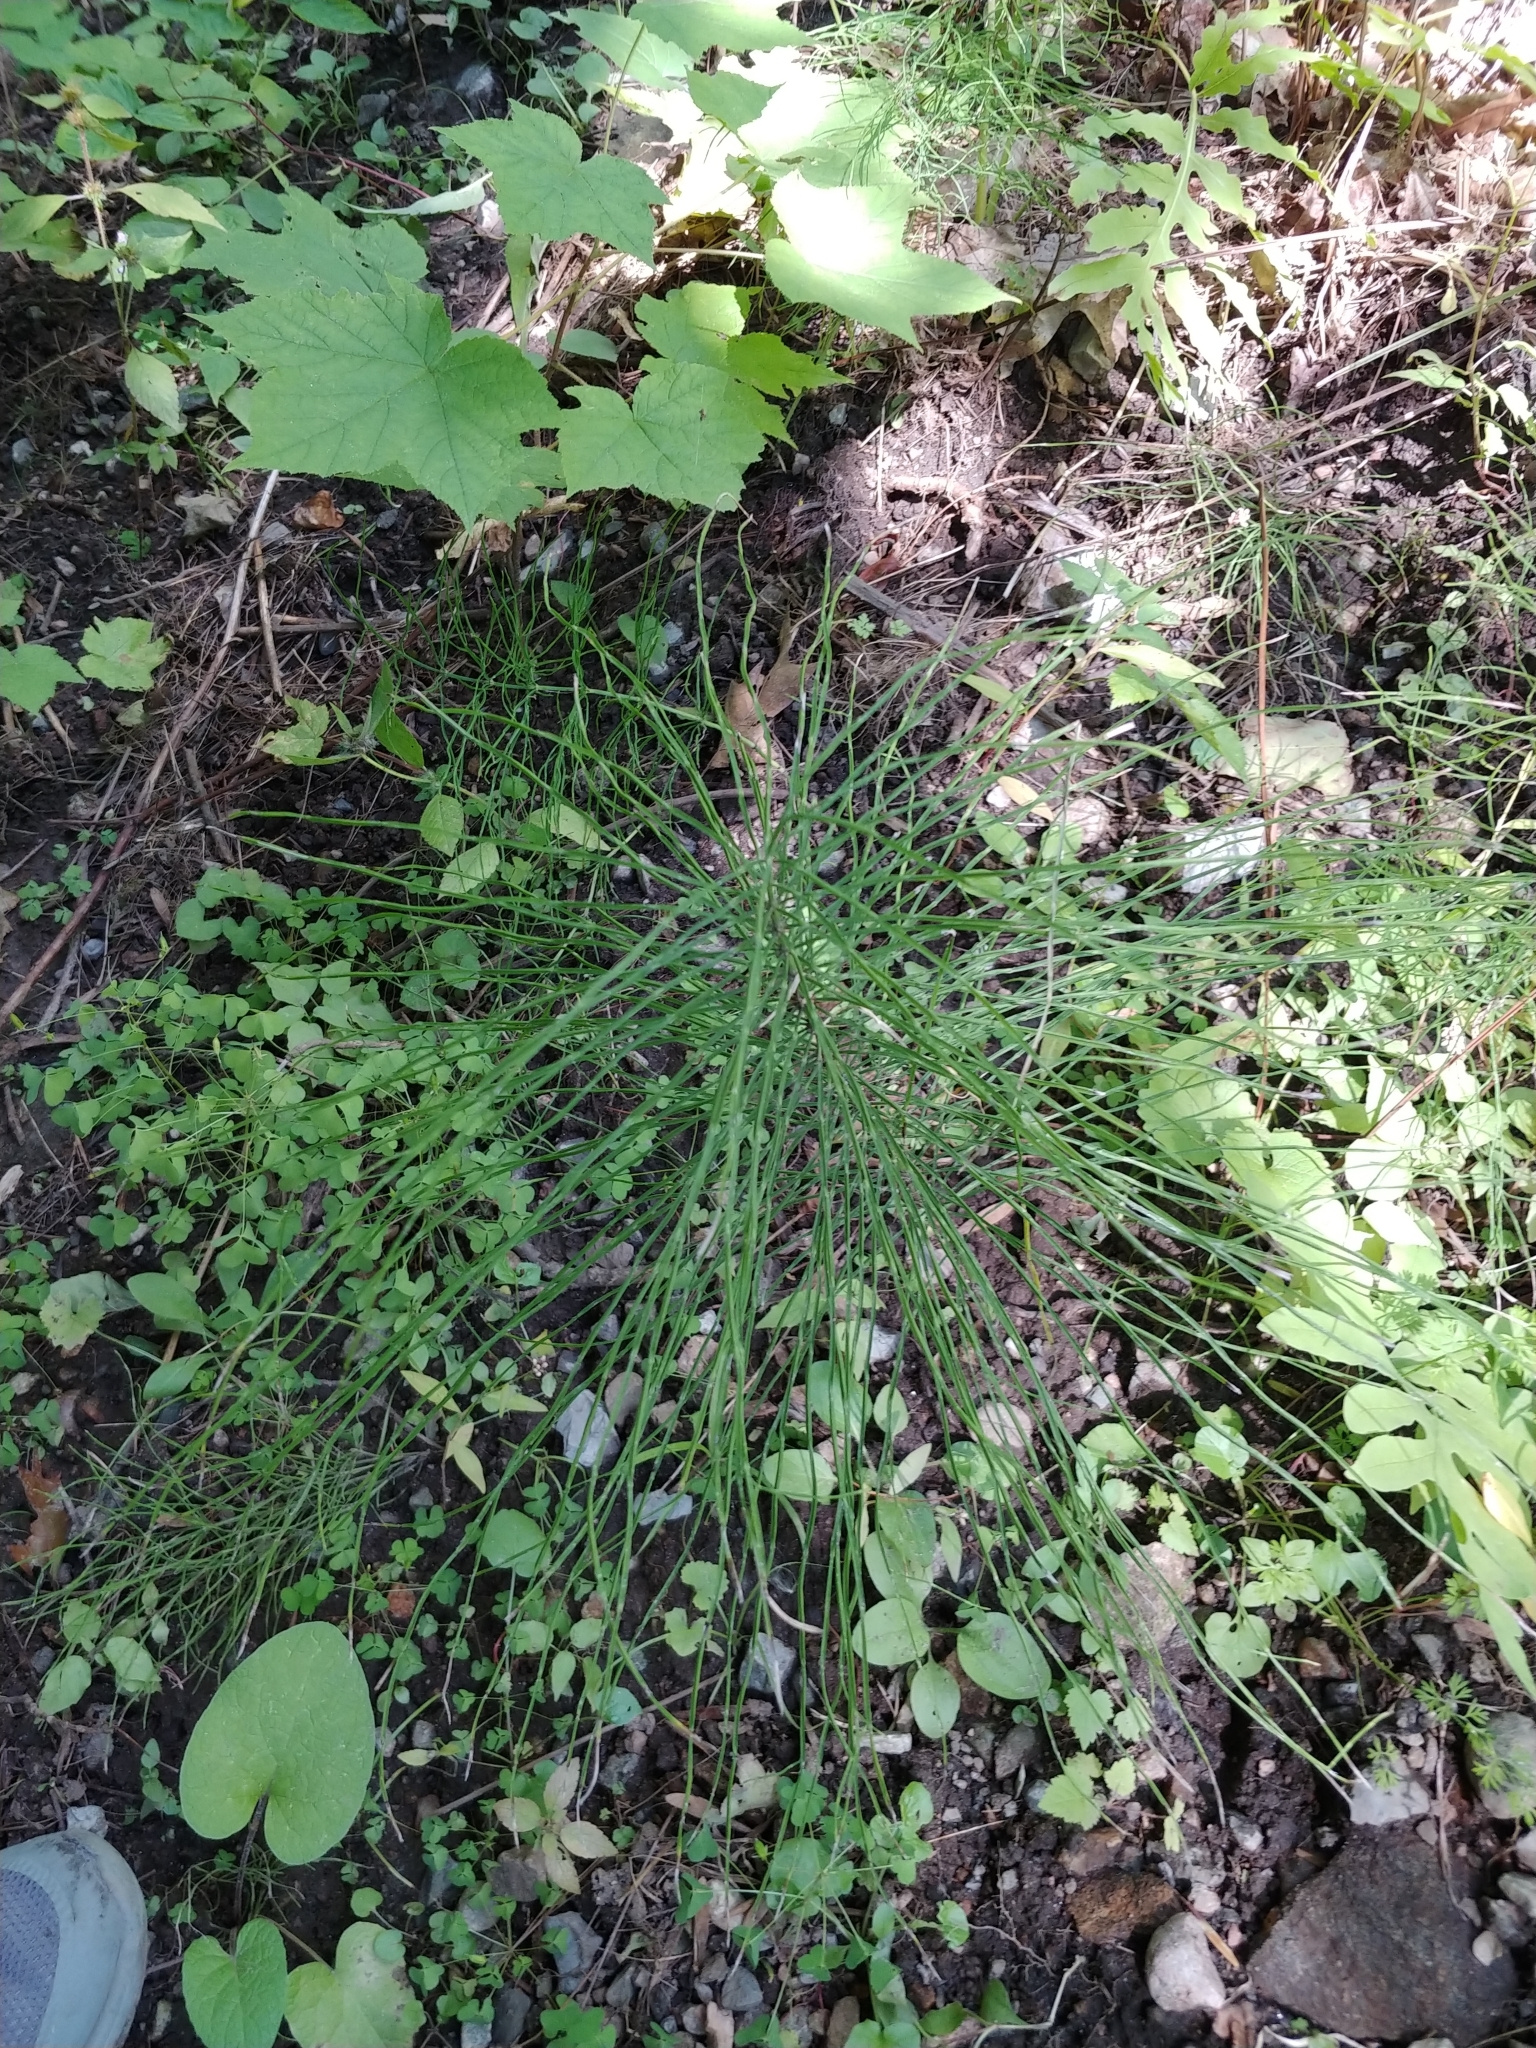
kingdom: Plantae
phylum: Tracheophyta
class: Polypodiopsida
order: Equisetales
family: Equisetaceae
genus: Equisetum
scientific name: Equisetum arvense
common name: Field horsetail
